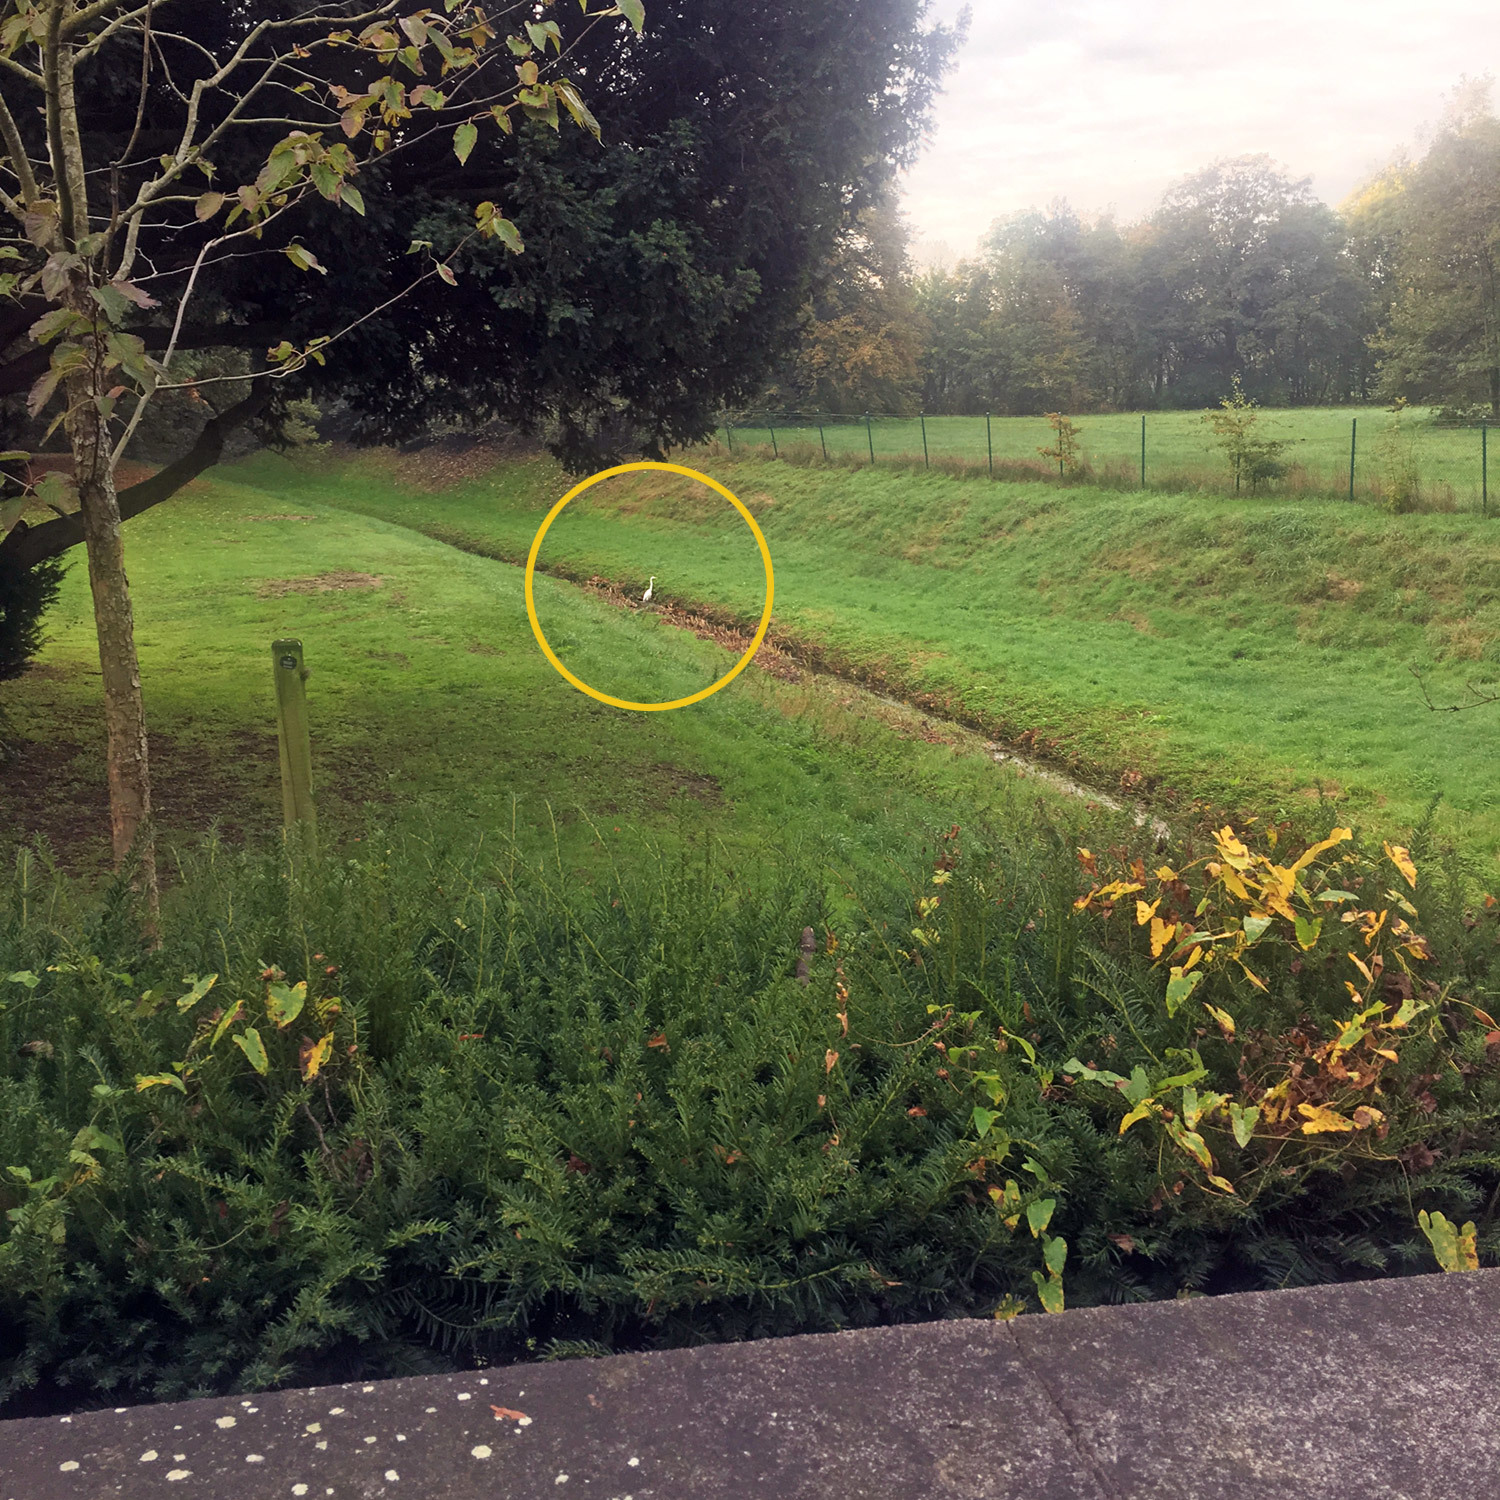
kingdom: Animalia
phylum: Chordata
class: Aves
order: Pelecaniformes
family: Ardeidae
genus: Ardea
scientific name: Ardea alba
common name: Great egret
